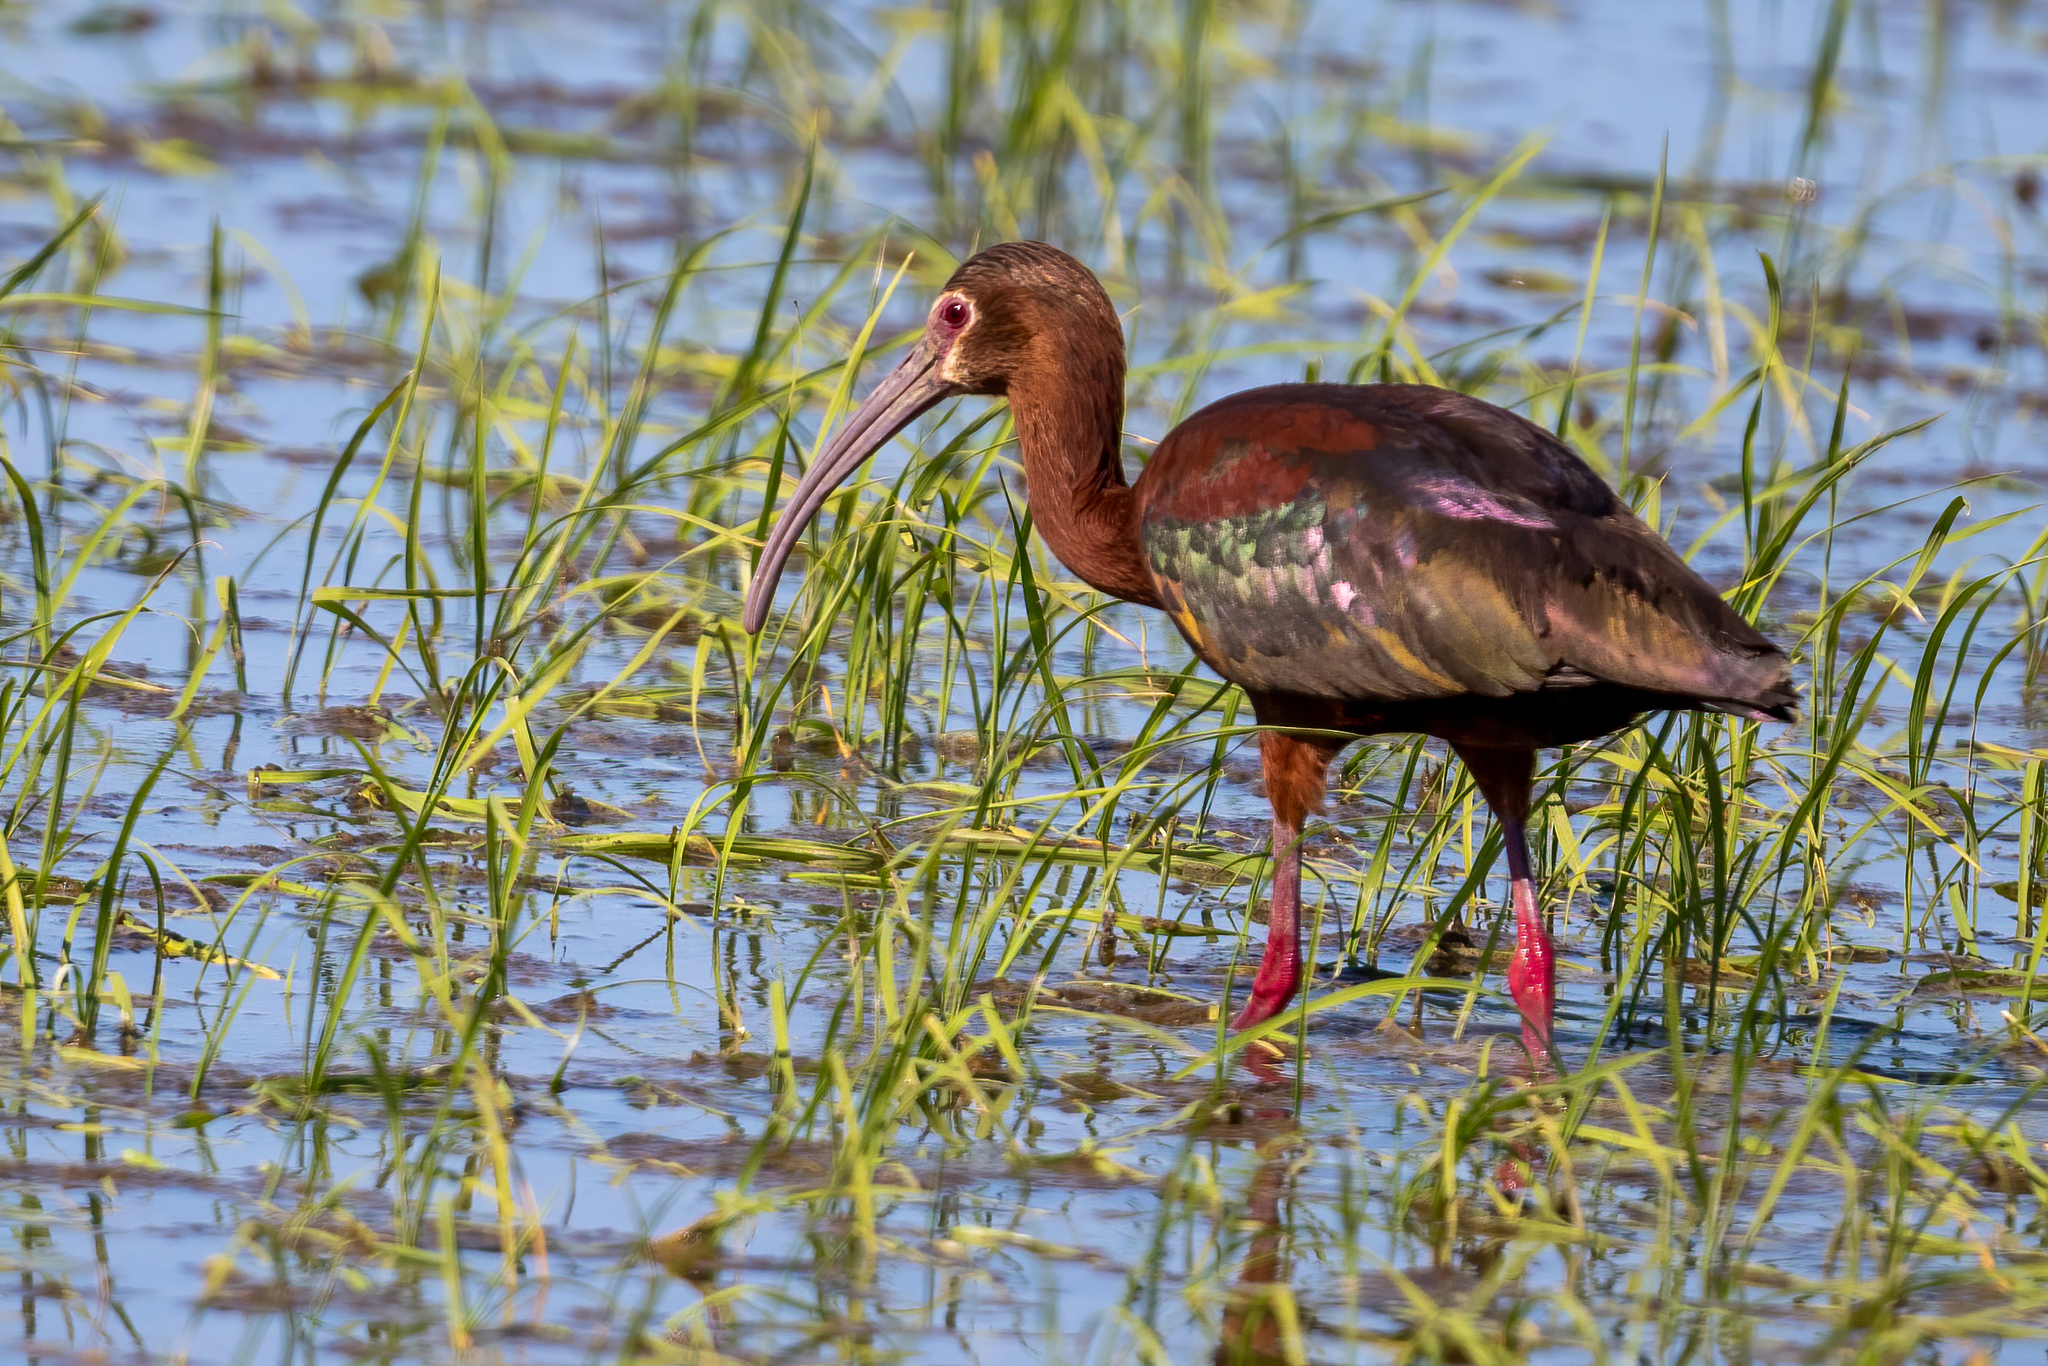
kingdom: Animalia
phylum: Chordata
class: Aves
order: Pelecaniformes
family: Threskiornithidae
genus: Plegadis
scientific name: Plegadis chihi
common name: White-faced ibis
